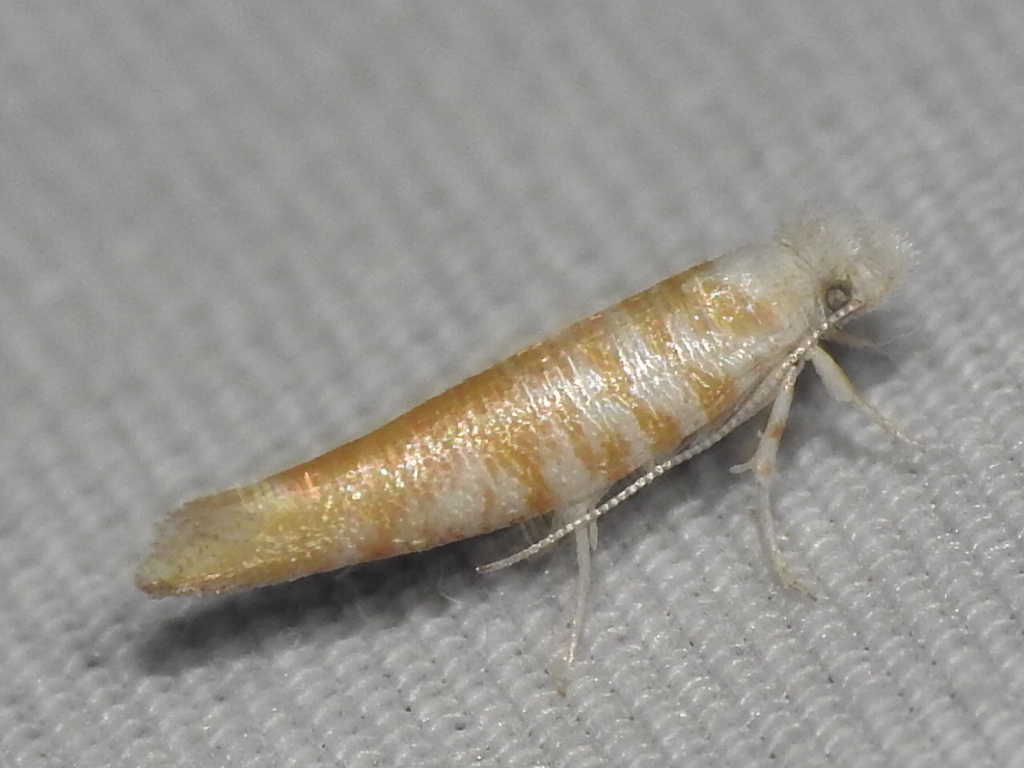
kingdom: Animalia
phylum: Arthropoda
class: Insecta
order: Lepidoptera
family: Yponomeutidae
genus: Zelleria
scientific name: Zelleria retiniella
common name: Brindled zelleria
